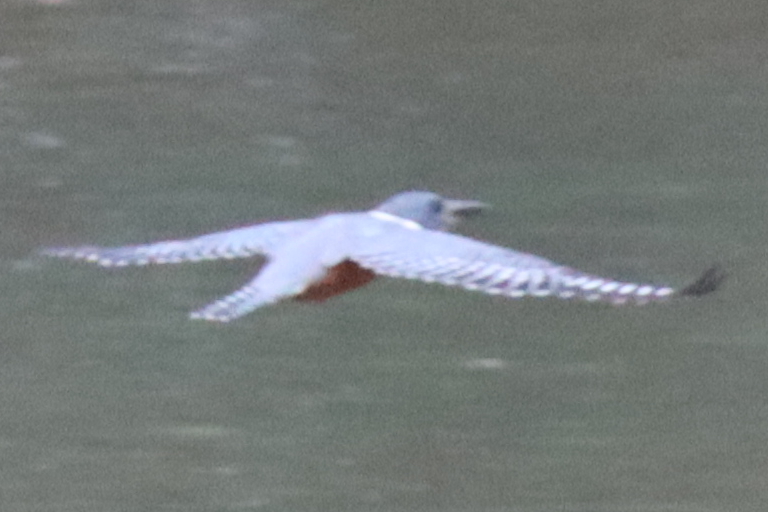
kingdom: Animalia
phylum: Chordata
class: Aves
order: Coraciiformes
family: Alcedinidae
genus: Megaceryle
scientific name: Megaceryle torquata
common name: Ringed kingfisher
